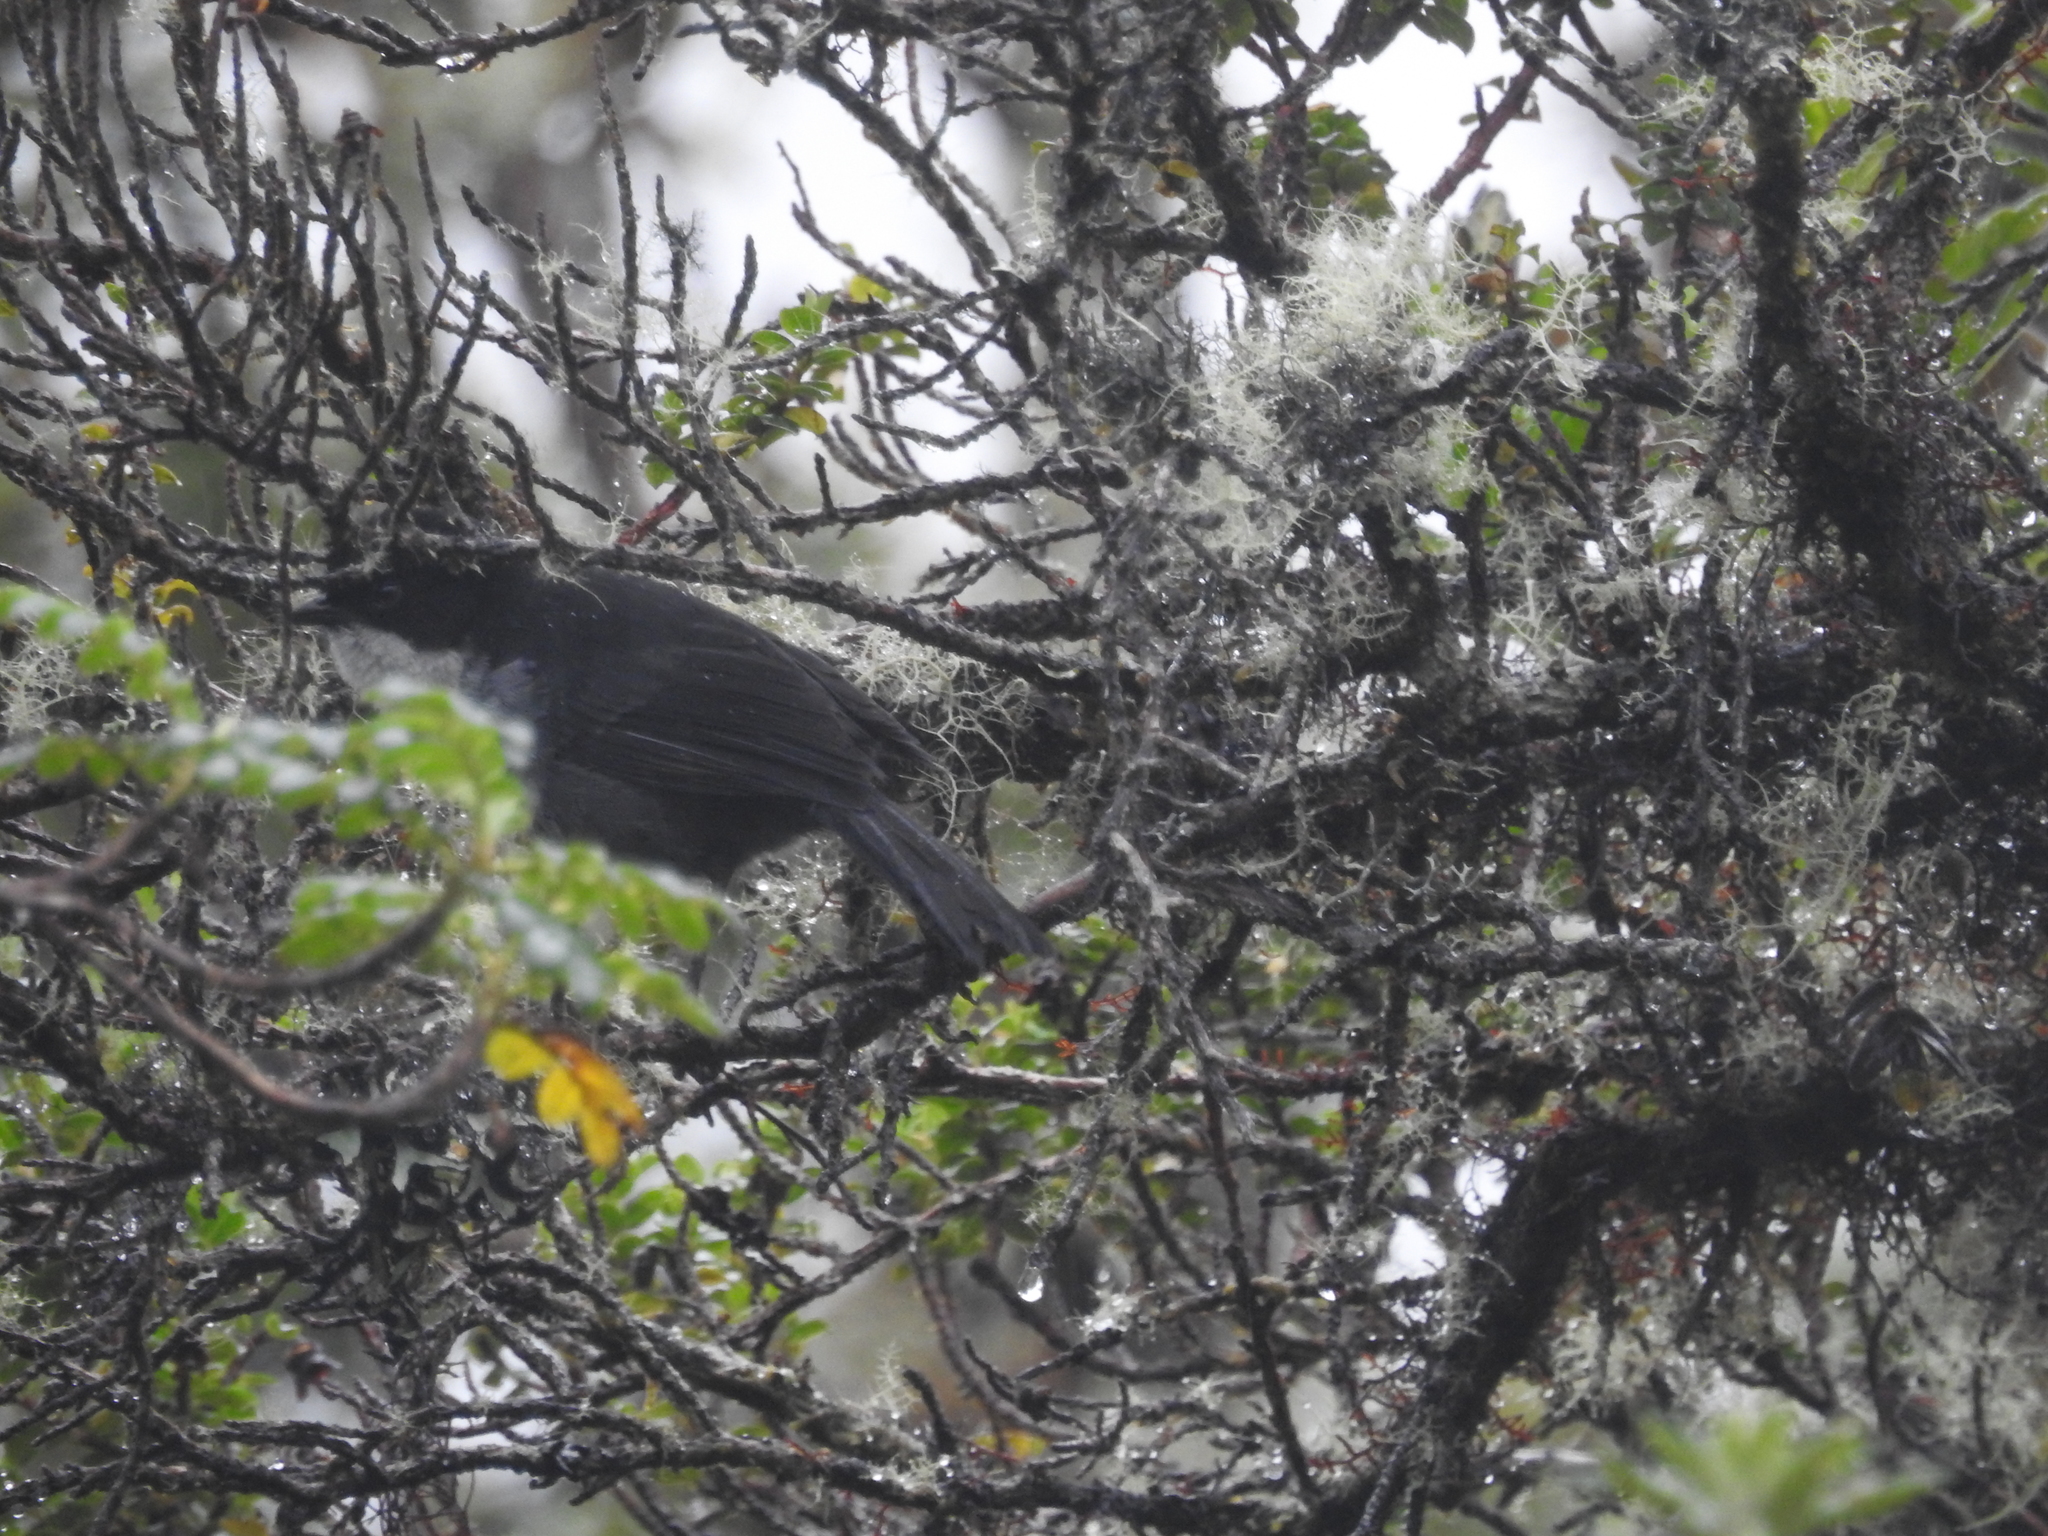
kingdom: Animalia
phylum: Chordata
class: Aves
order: Passeriformes
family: Thraupidae
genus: Urothraupis
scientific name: Urothraupis stolzmanni
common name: Black-backed bush tanager
